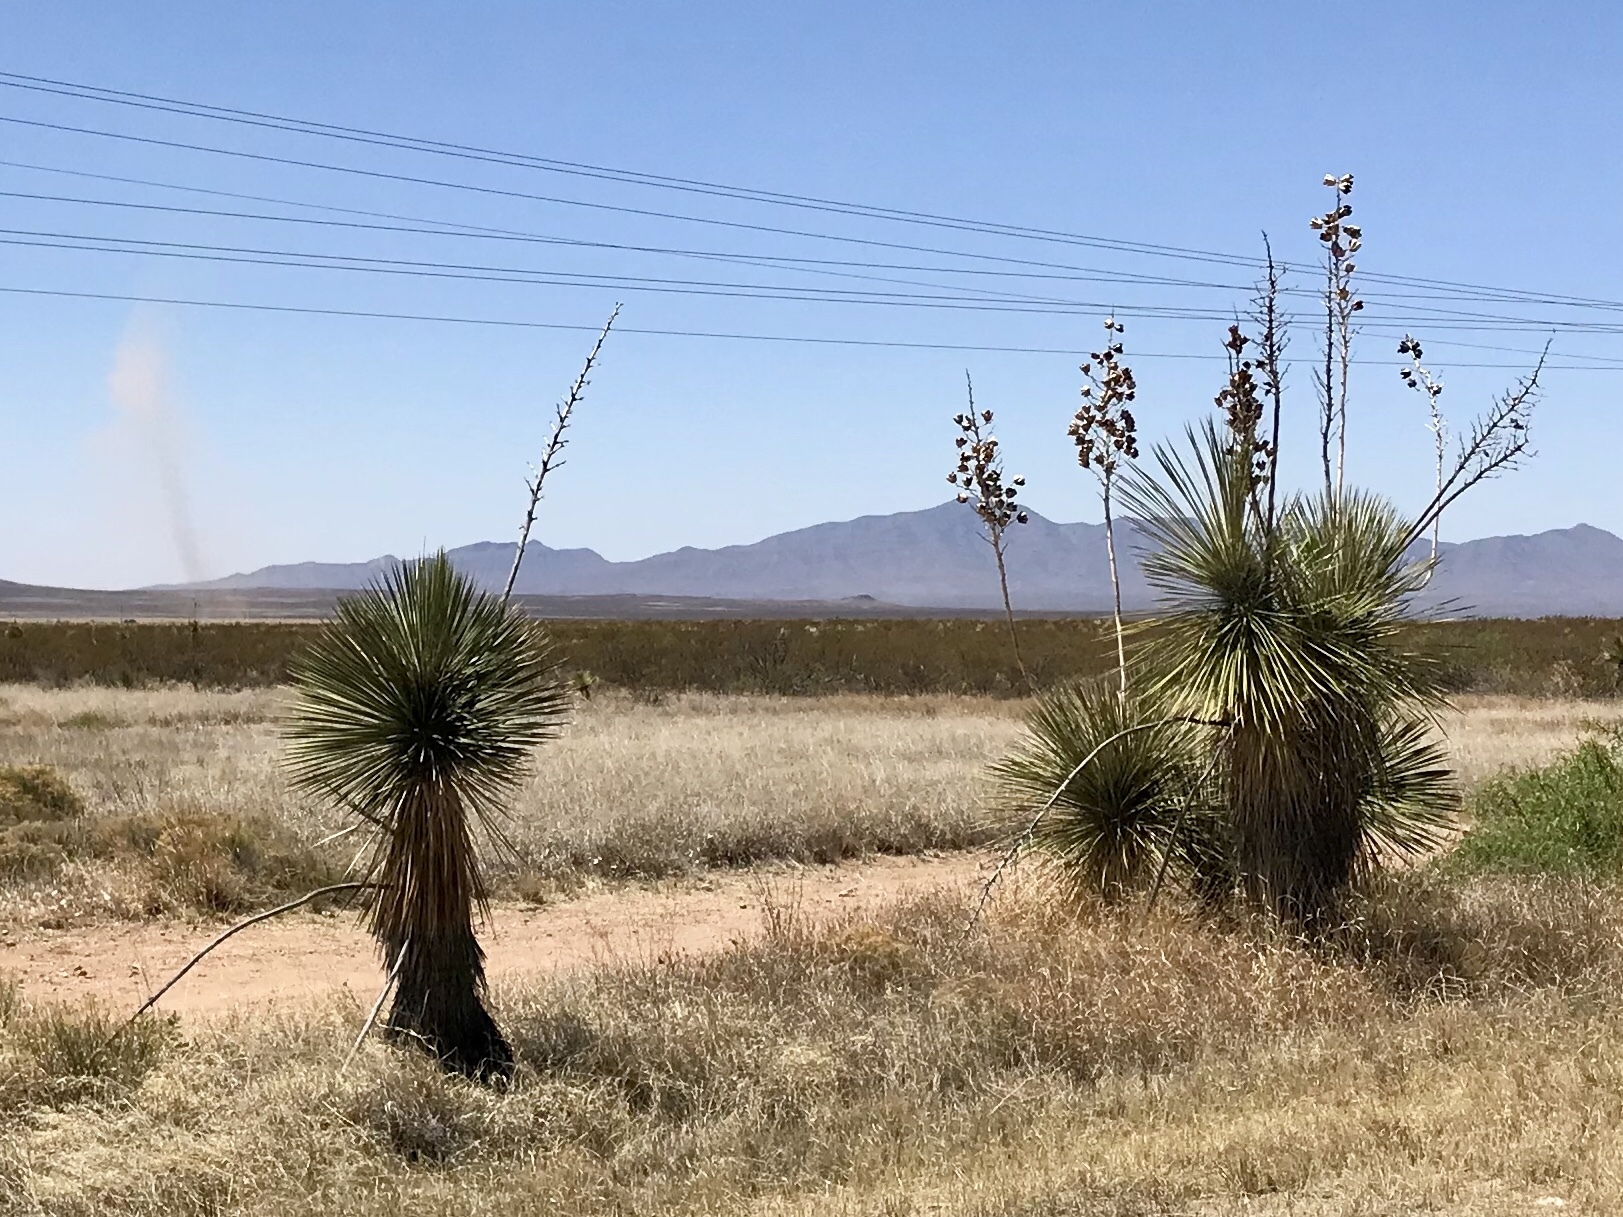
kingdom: Plantae
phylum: Tracheophyta
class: Liliopsida
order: Asparagales
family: Asparagaceae
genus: Yucca
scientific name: Yucca elata
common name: Palmella
